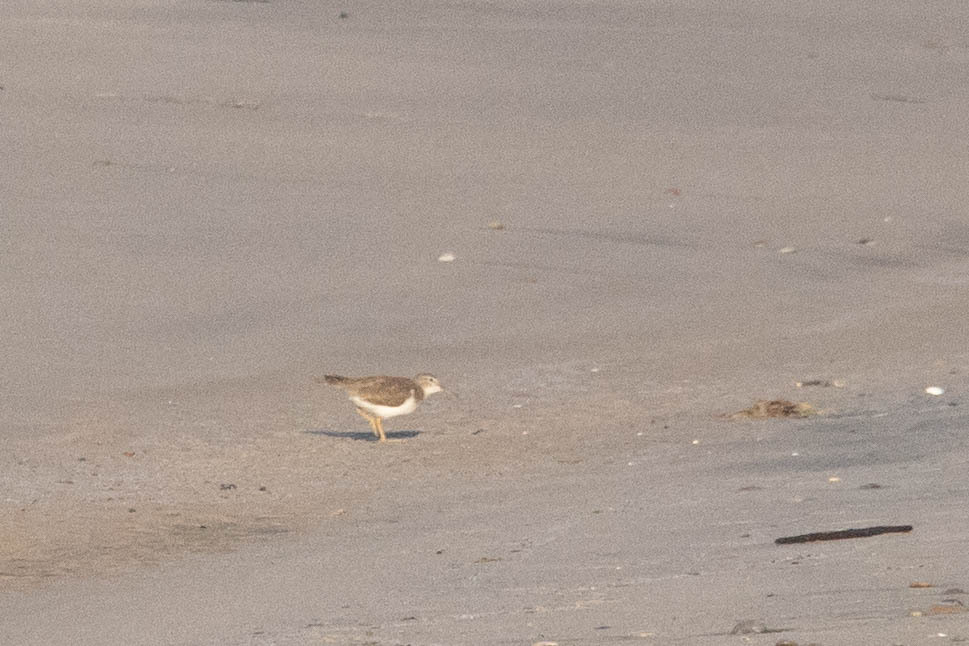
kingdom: Animalia
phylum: Chordata
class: Aves
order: Charadriiformes
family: Scolopacidae
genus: Actitis
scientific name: Actitis macularius
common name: Spotted sandpiper
